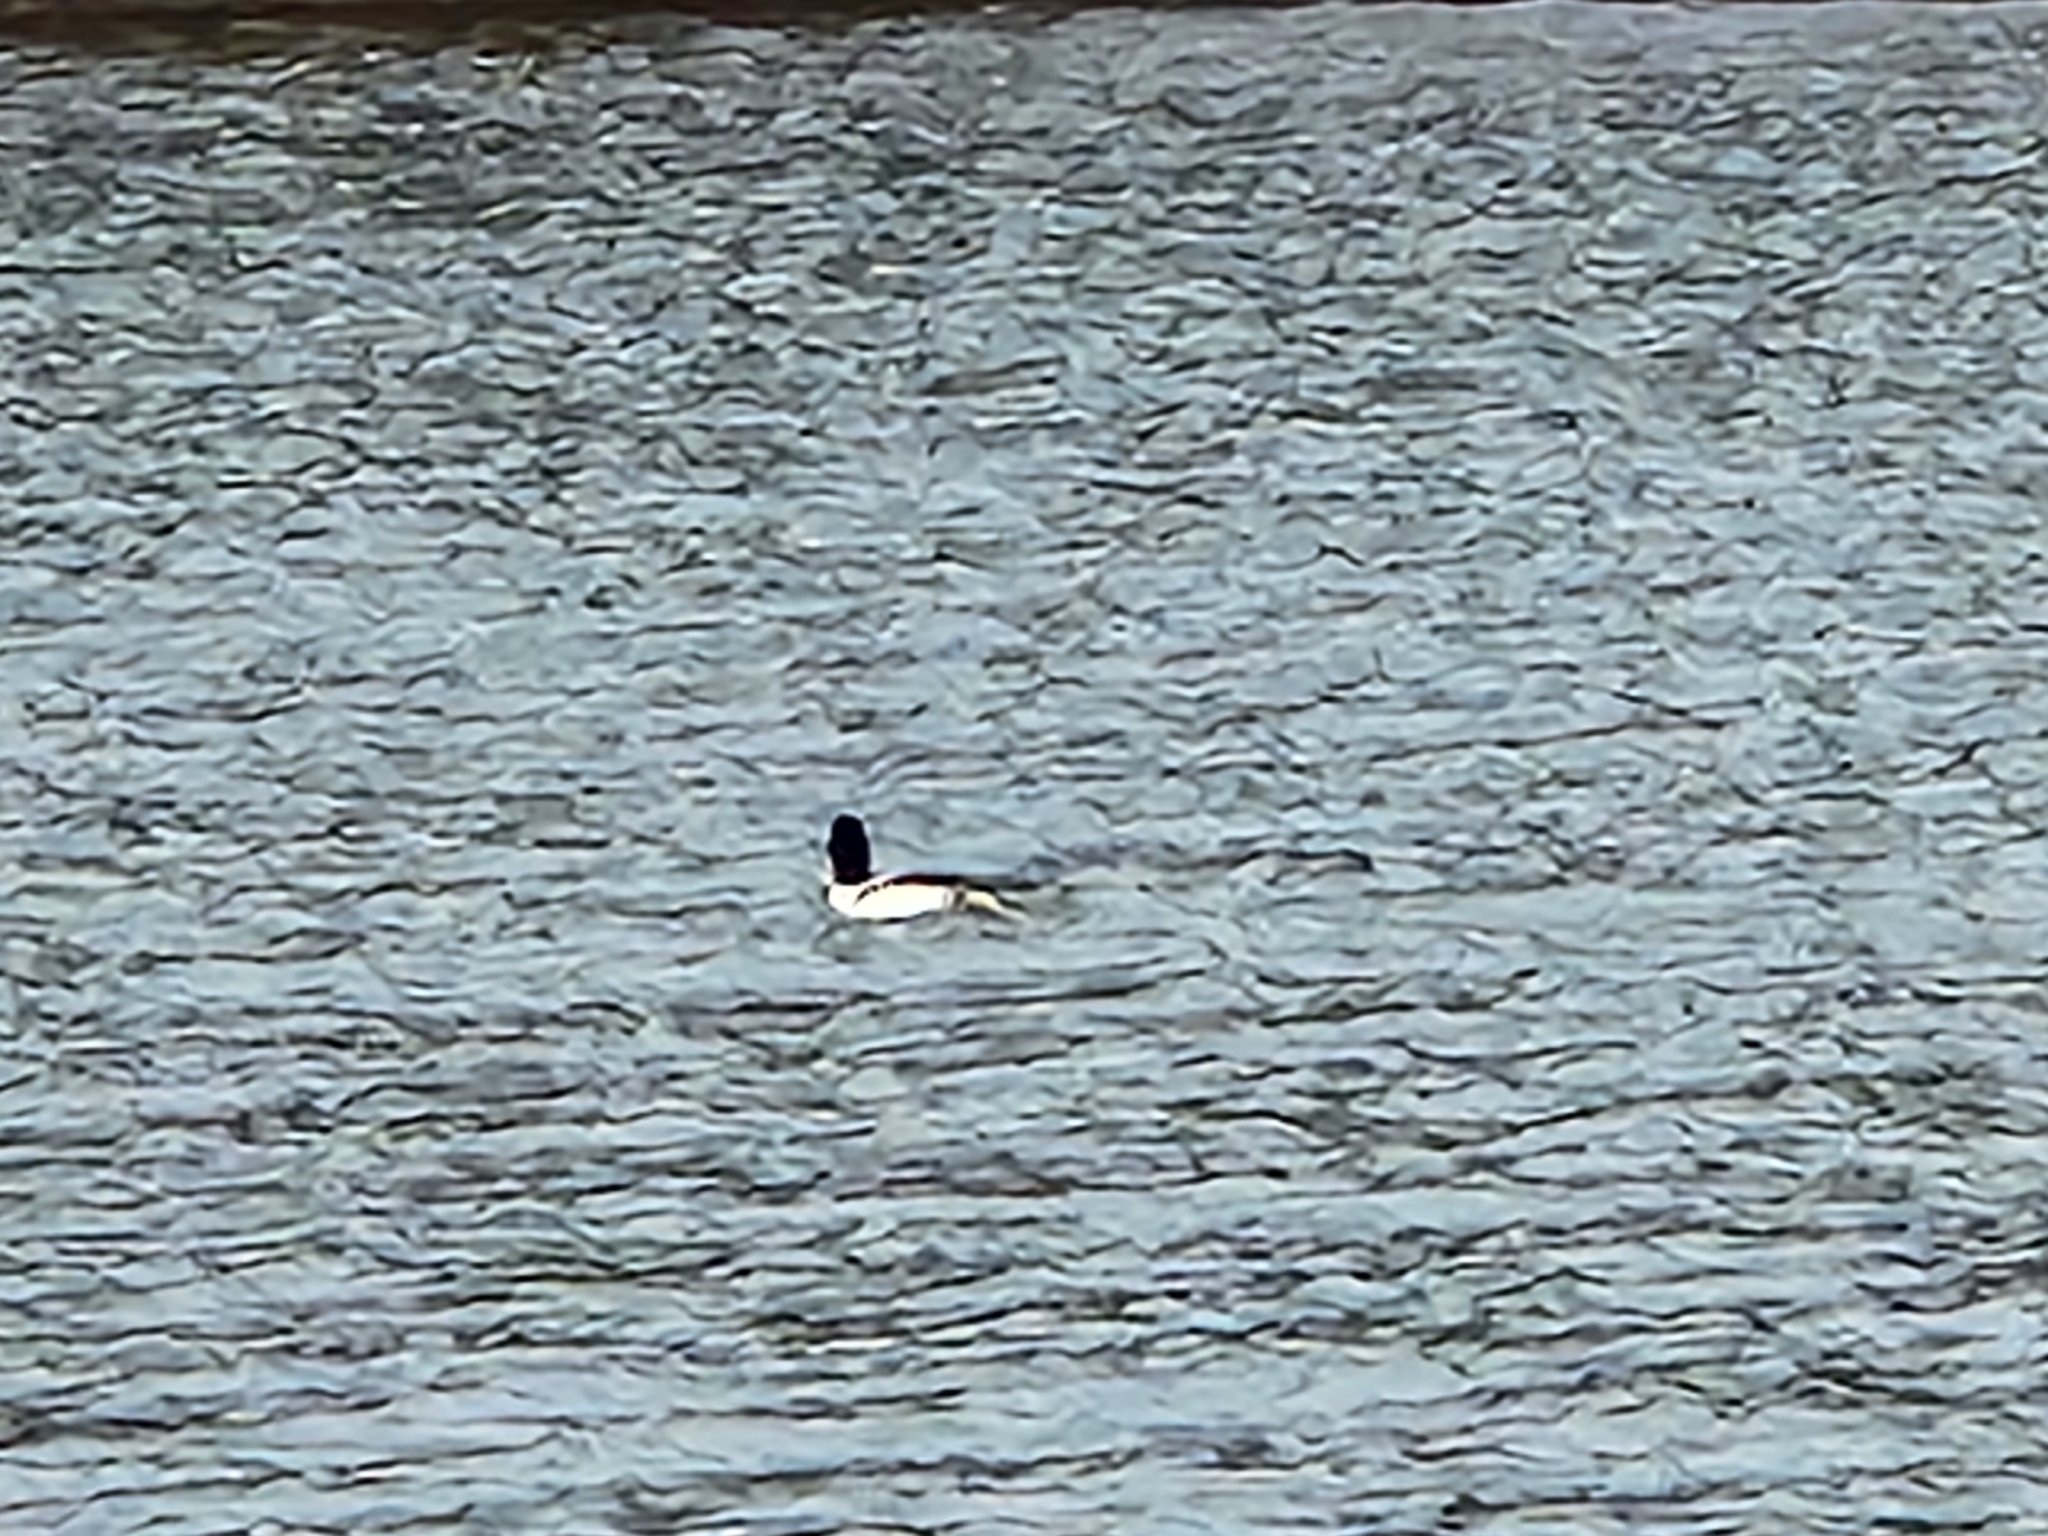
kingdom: Animalia
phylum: Chordata
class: Aves
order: Anseriformes
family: Anatidae
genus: Mergus
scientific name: Mergus merganser
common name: Common merganser
